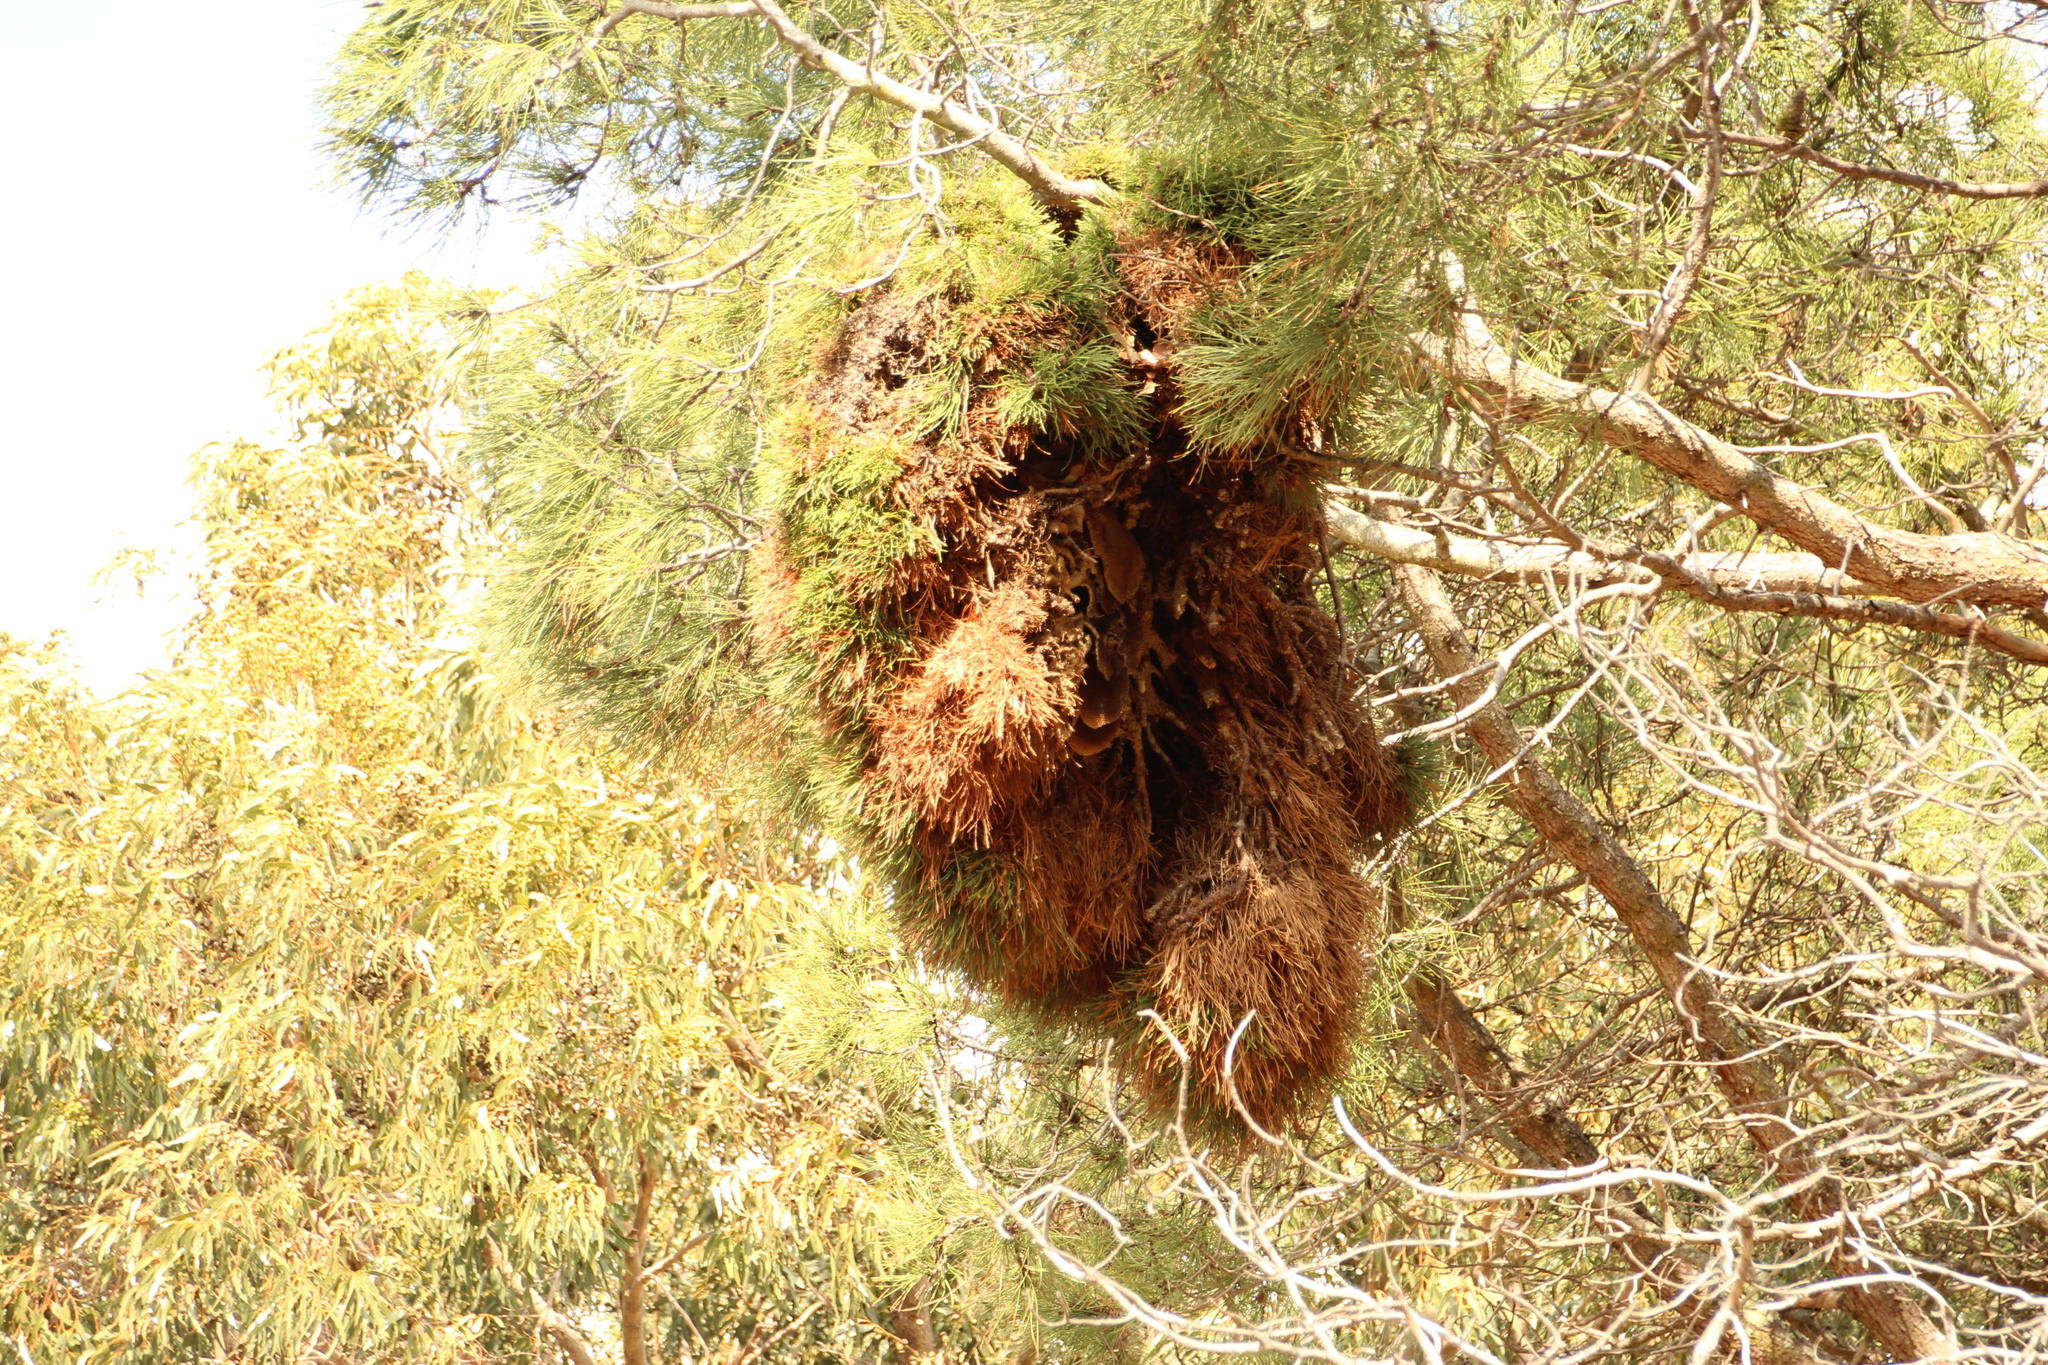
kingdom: Bacteria
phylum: Firmicutes
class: Bacilli
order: Acholeplasmatales
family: Acholeplasmataceae
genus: Phytoplasma
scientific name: Phytoplasma pini
